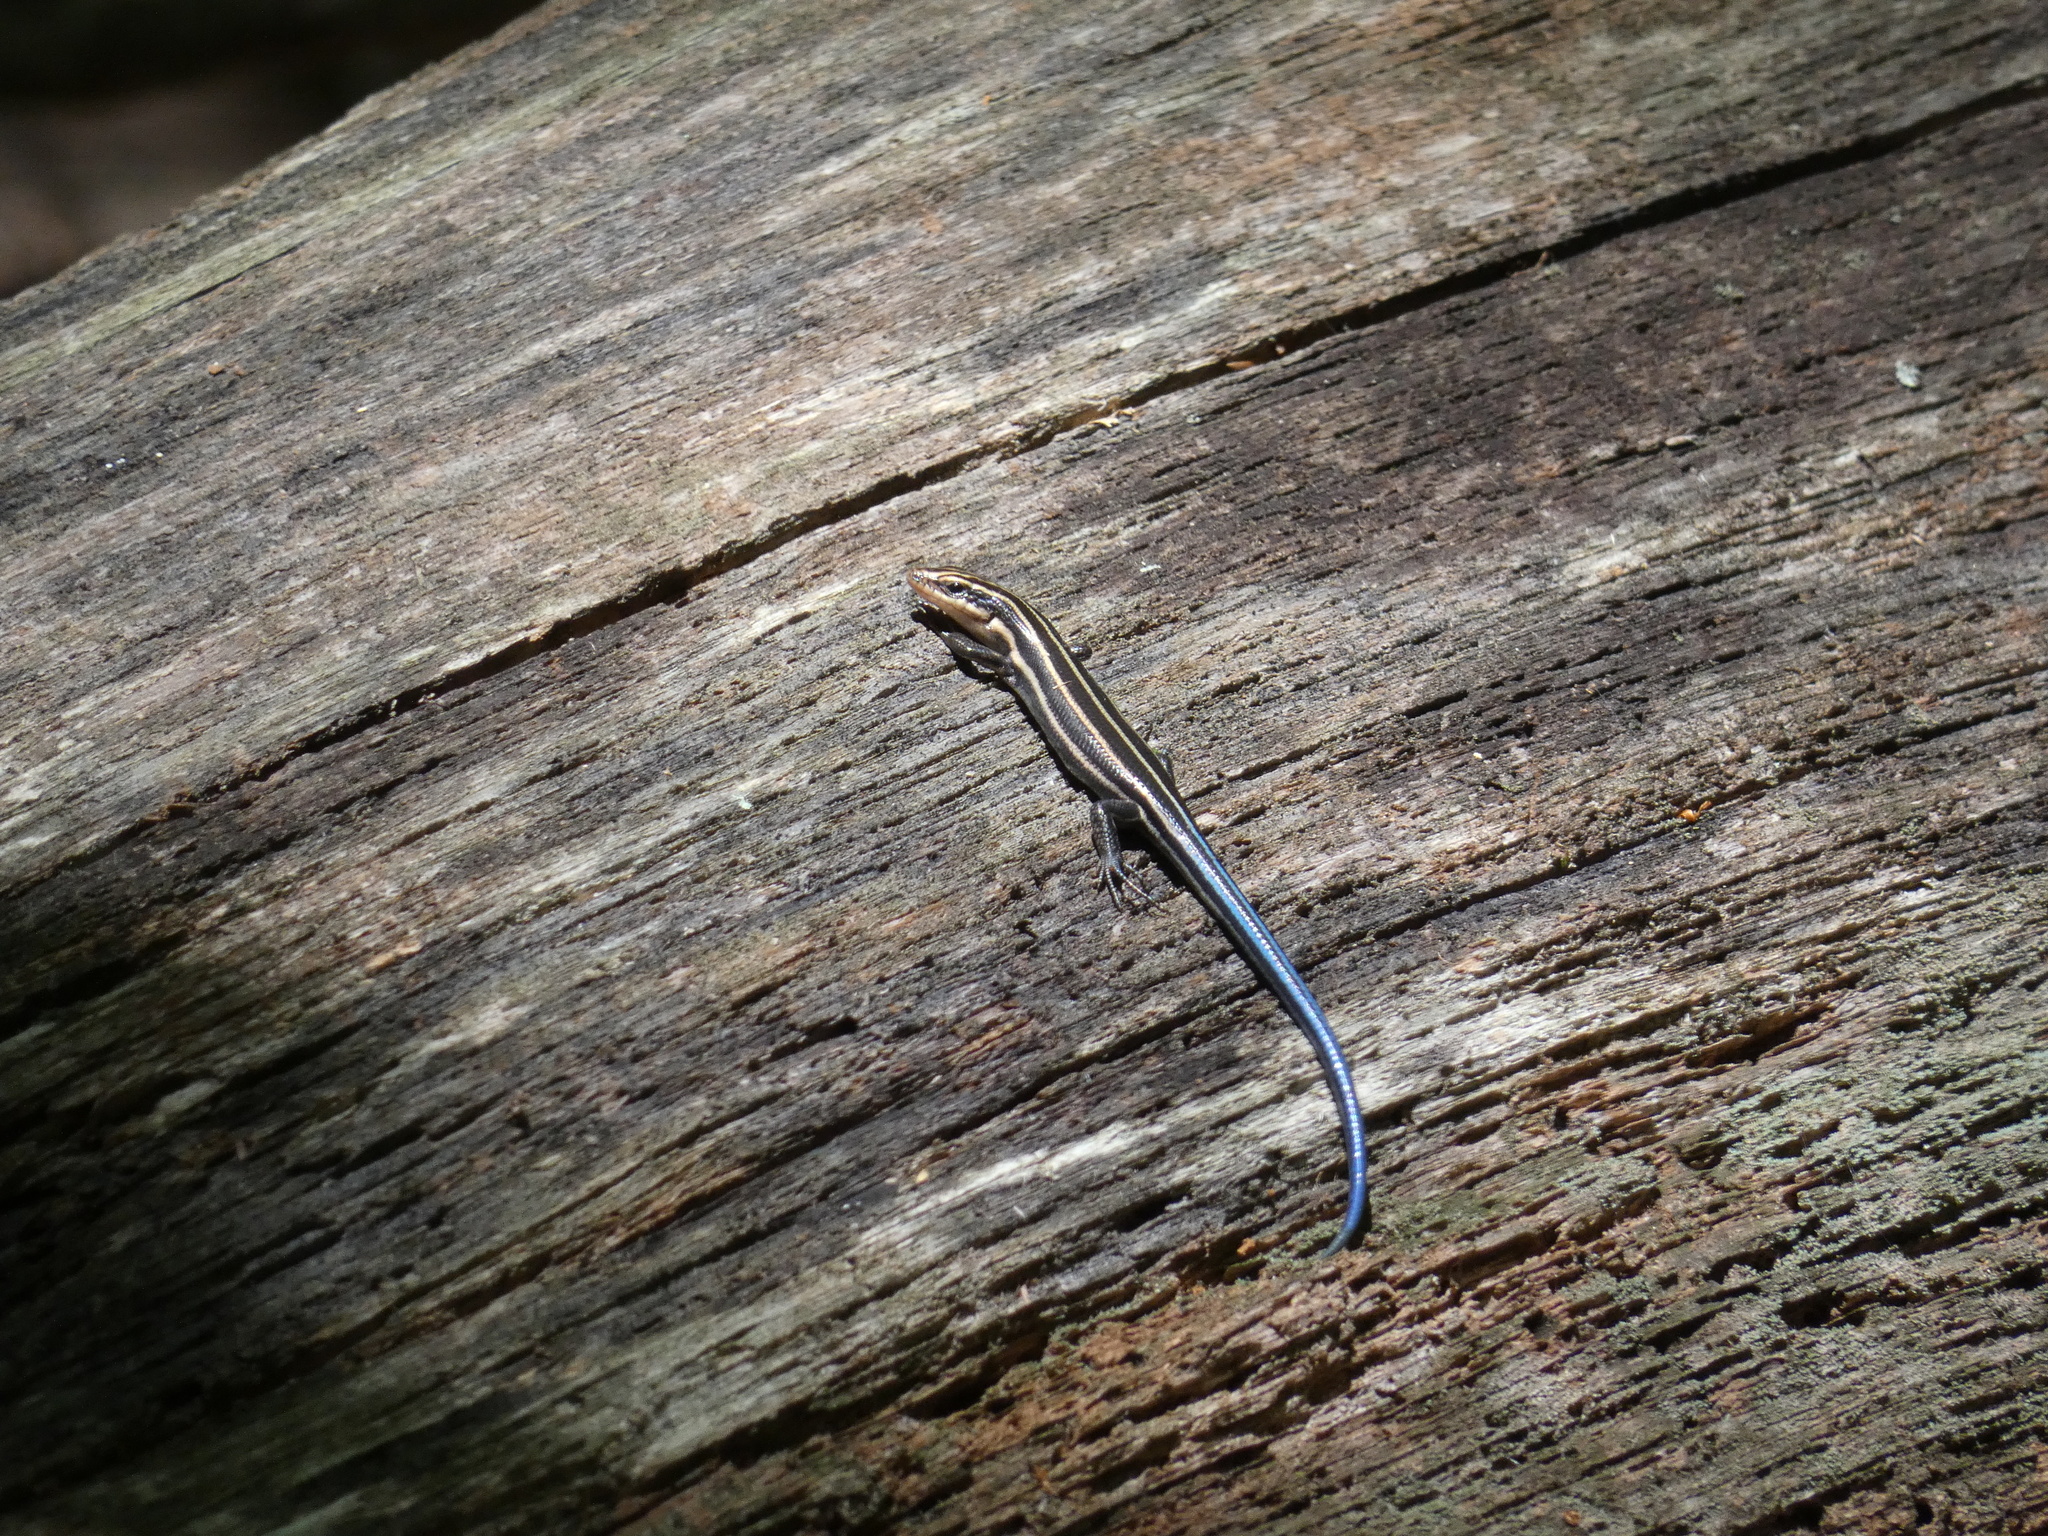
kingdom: Animalia
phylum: Chordata
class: Squamata
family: Scincidae
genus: Plestiodon
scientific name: Plestiodon fasciatus
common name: Five-lined skink
